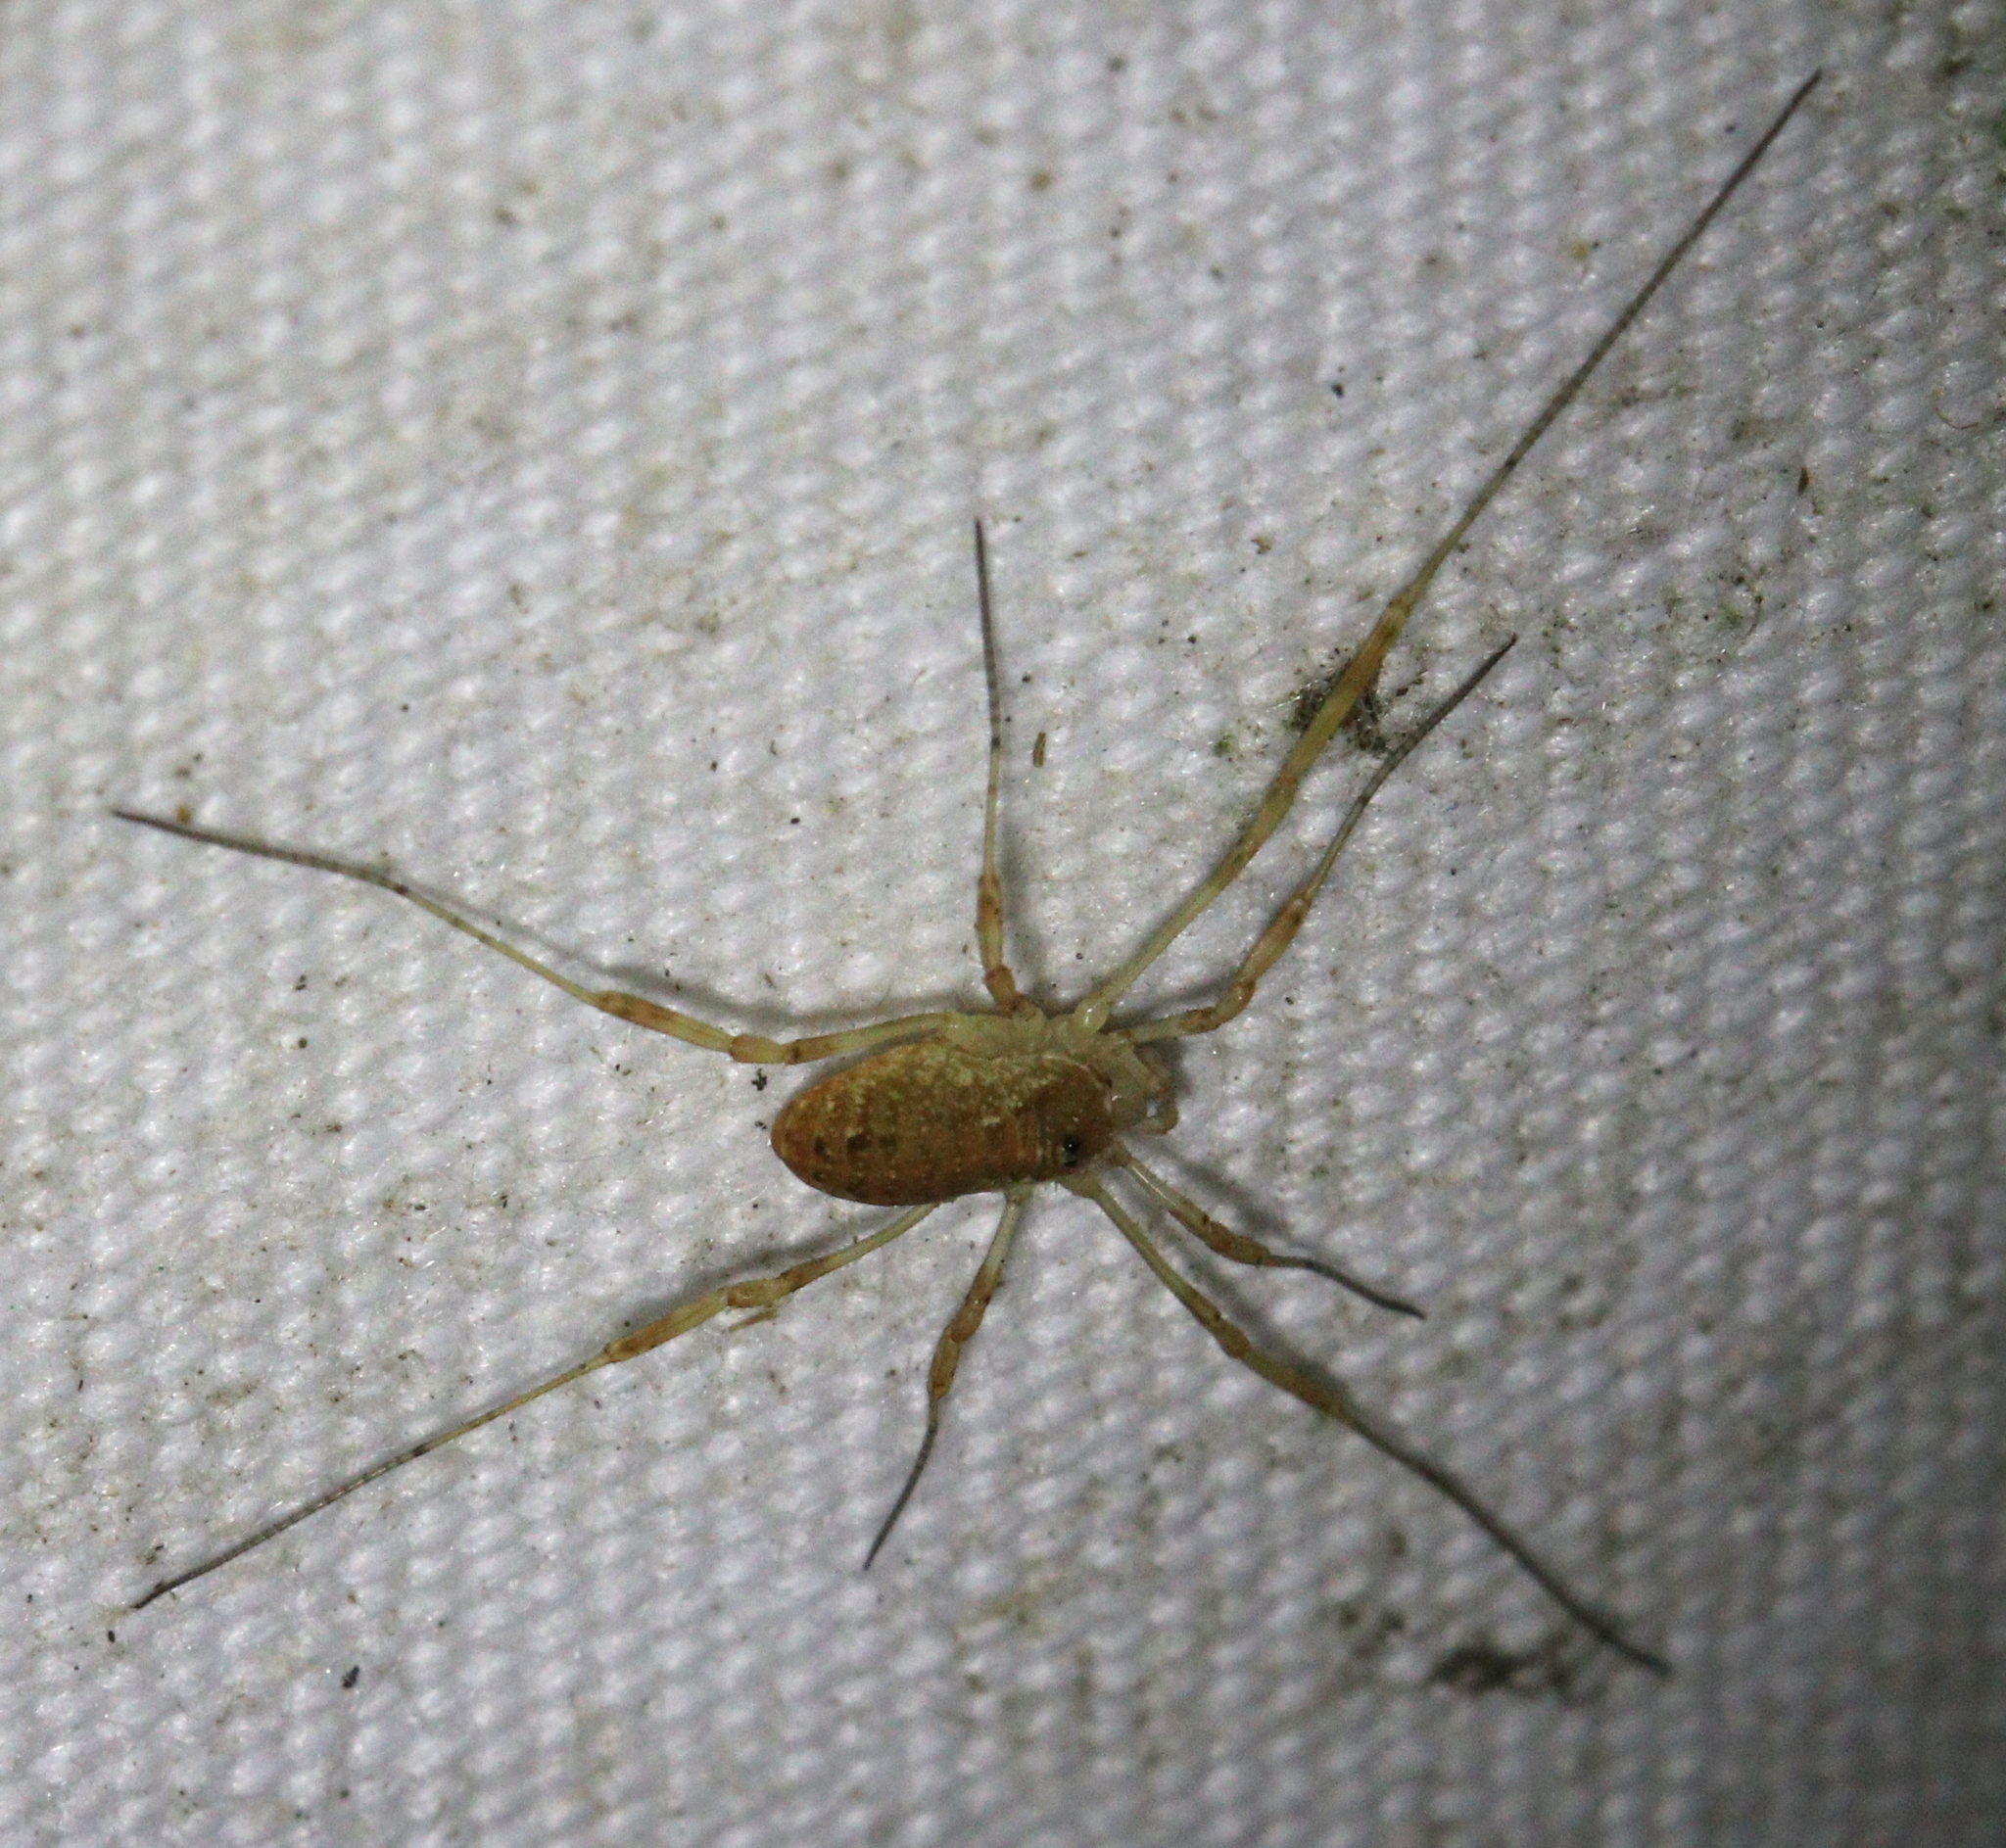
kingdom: Animalia
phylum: Arthropoda
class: Arachnida
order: Opiliones
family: Phalangiidae
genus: Paroligolophus
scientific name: Paroligolophus agrestis
